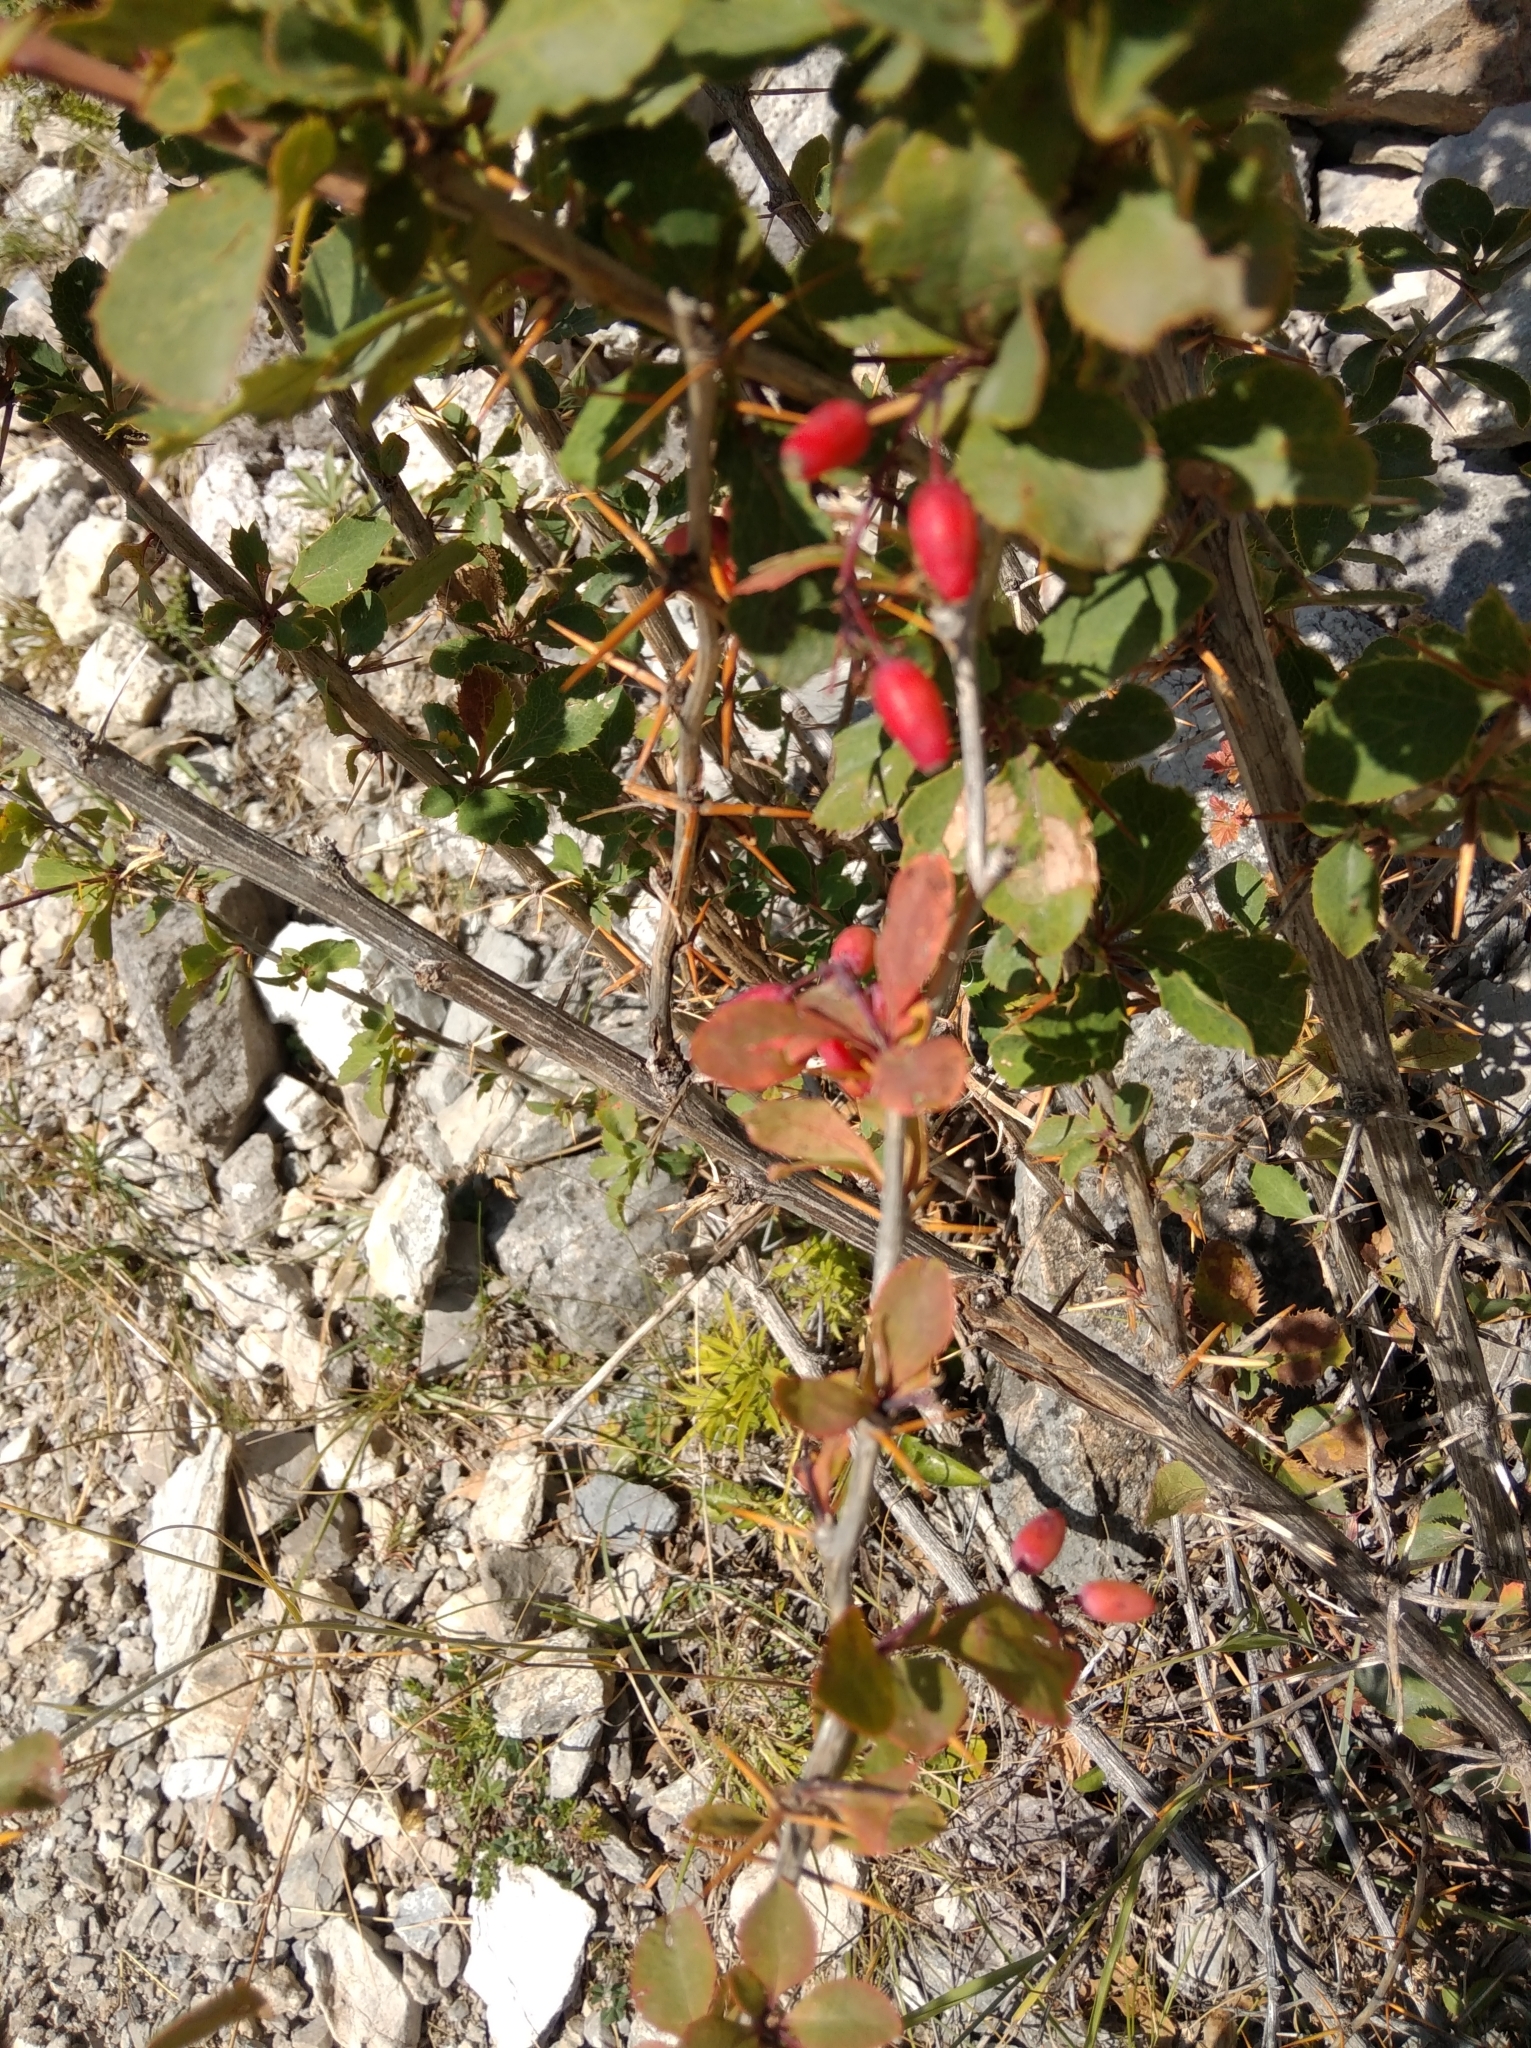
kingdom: Plantae
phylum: Tracheophyta
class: Magnoliopsida
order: Ranunculales
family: Berberidaceae
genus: Berberis
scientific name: Berberis vulgaris
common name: Barberry
